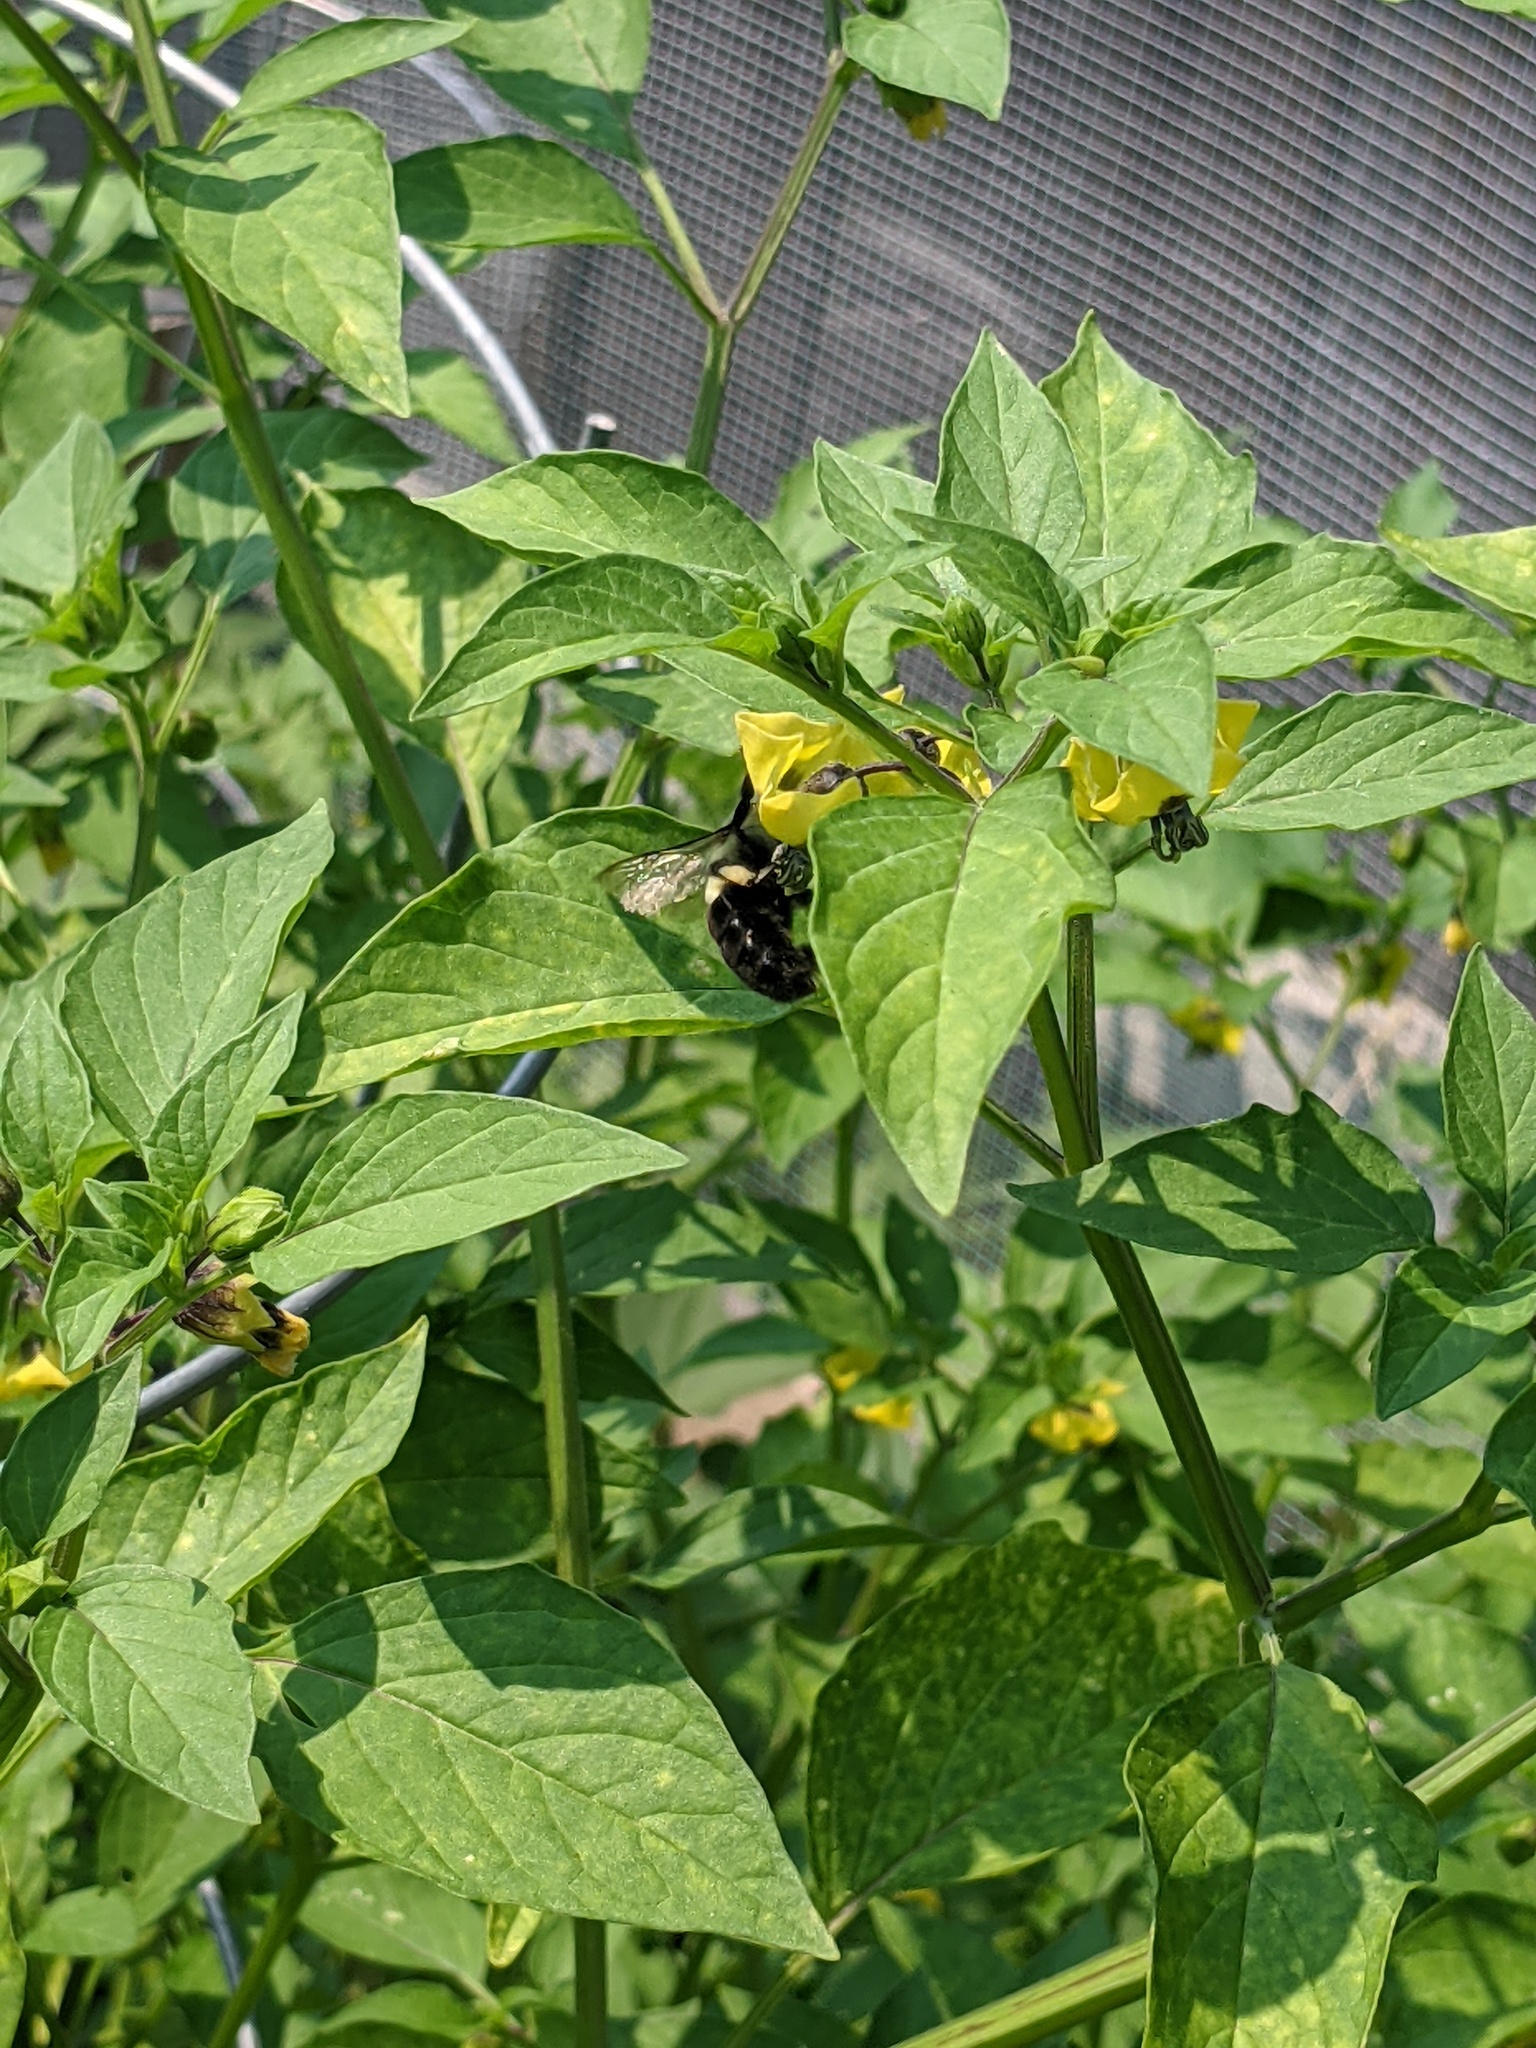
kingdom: Animalia
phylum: Arthropoda
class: Insecta
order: Hymenoptera
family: Apidae
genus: Bombus
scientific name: Bombus impatiens
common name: Common eastern bumble bee
